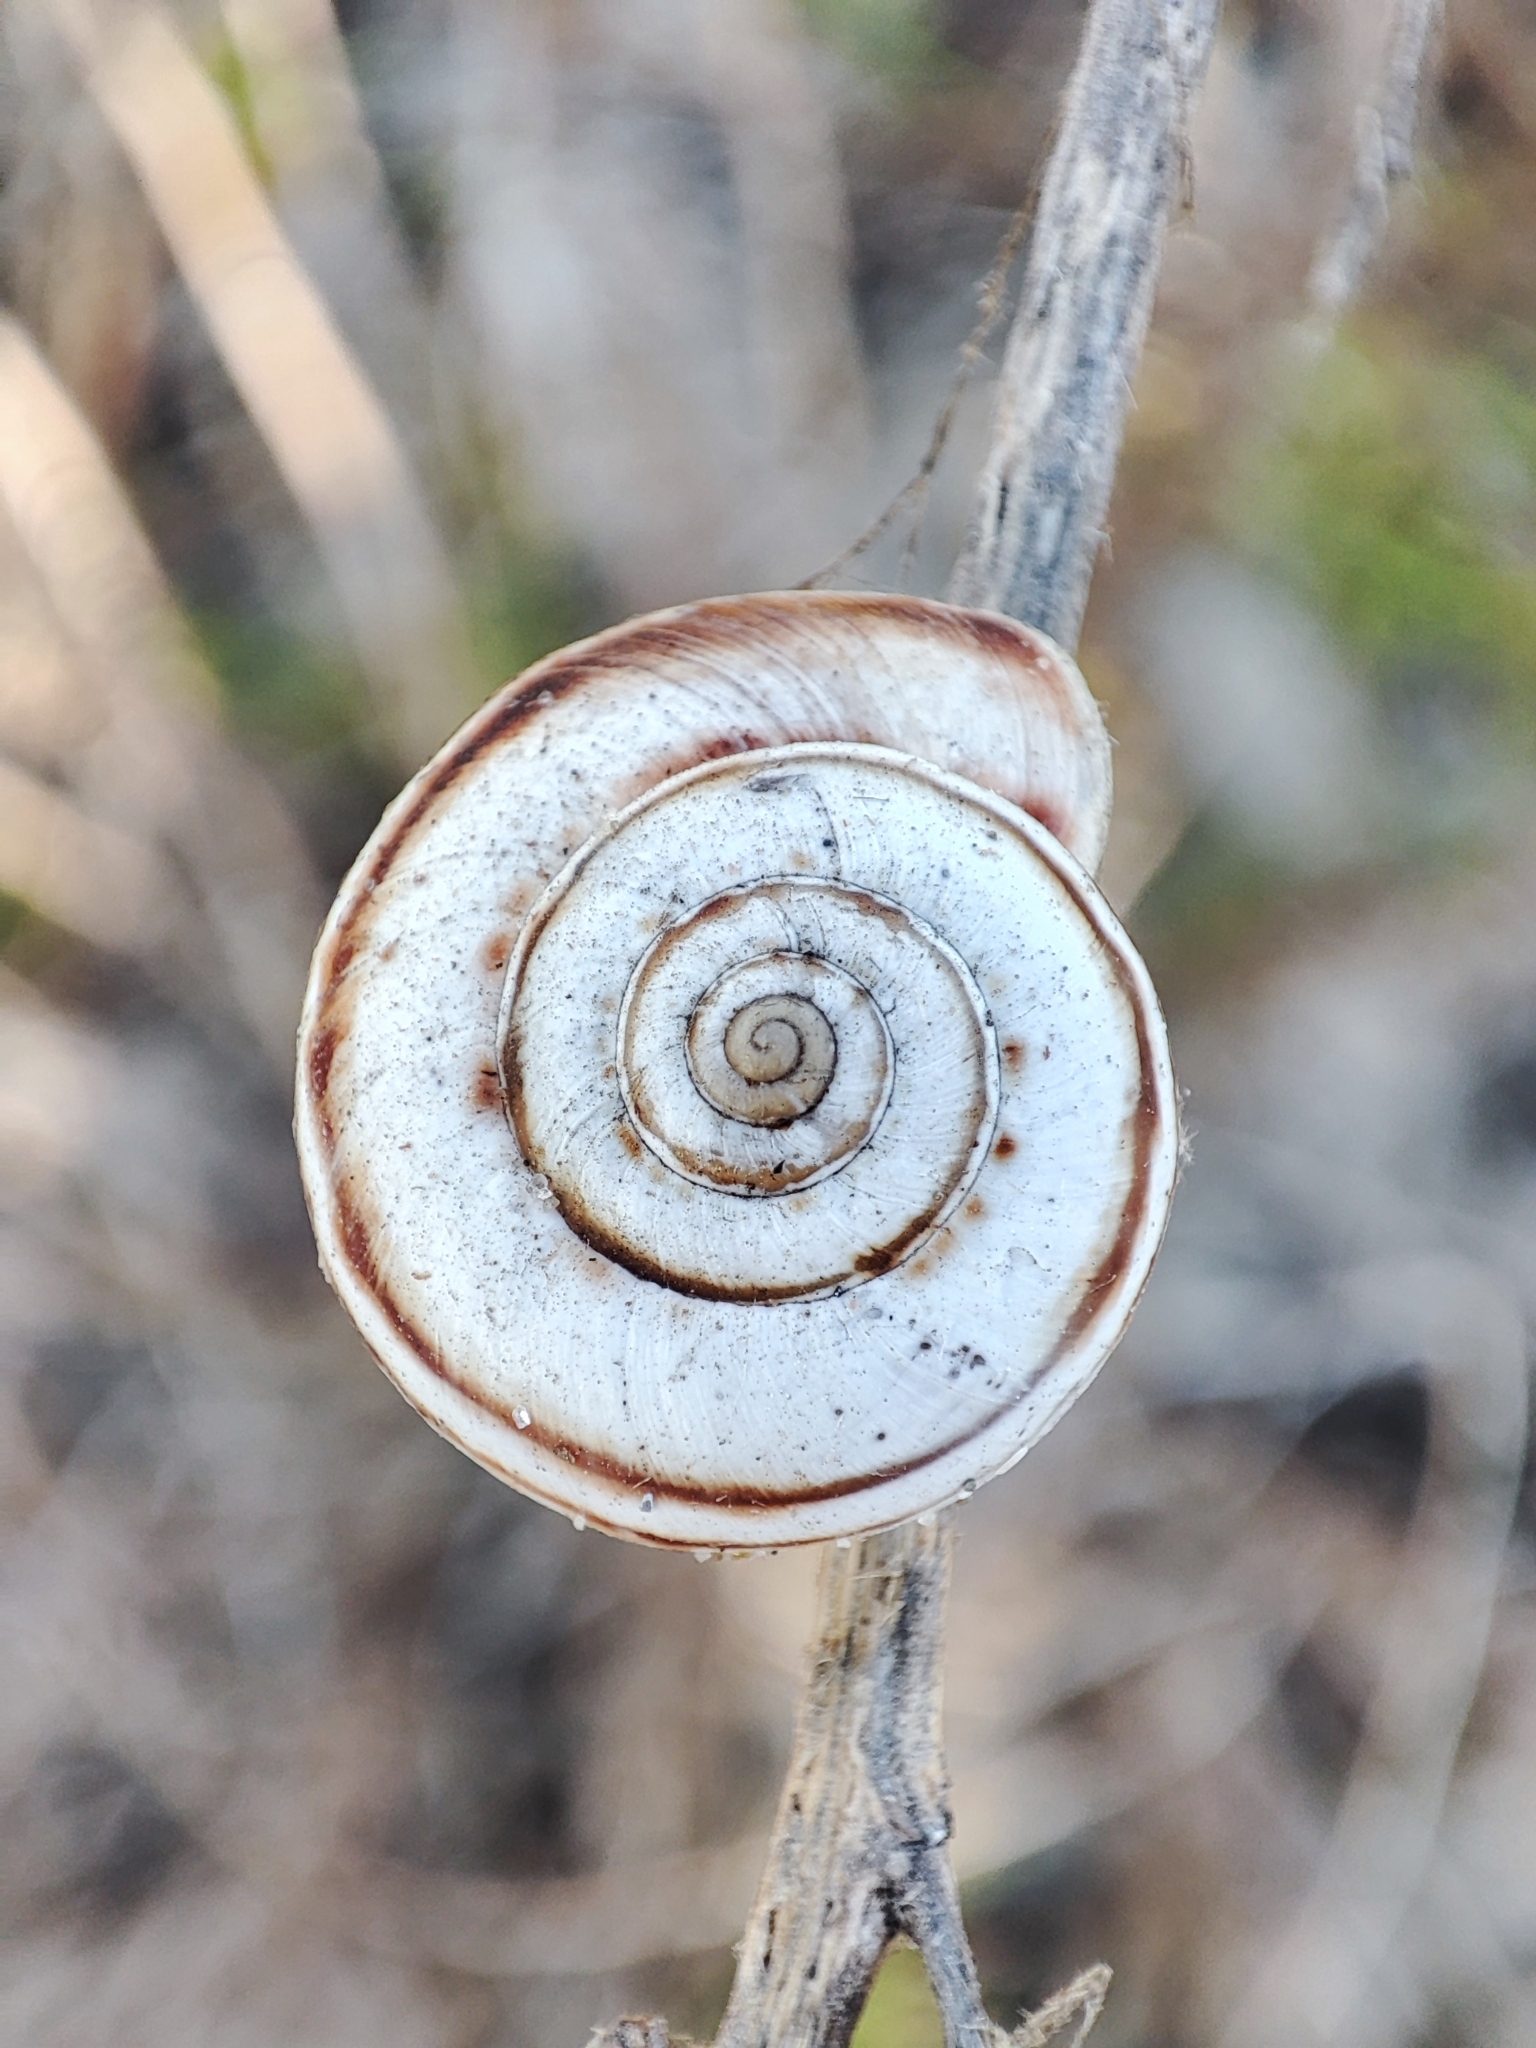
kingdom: Animalia
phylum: Mollusca
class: Gastropoda
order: Stylommatophora
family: Geomitridae
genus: Xeropicta
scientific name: Xeropicta derbentina
